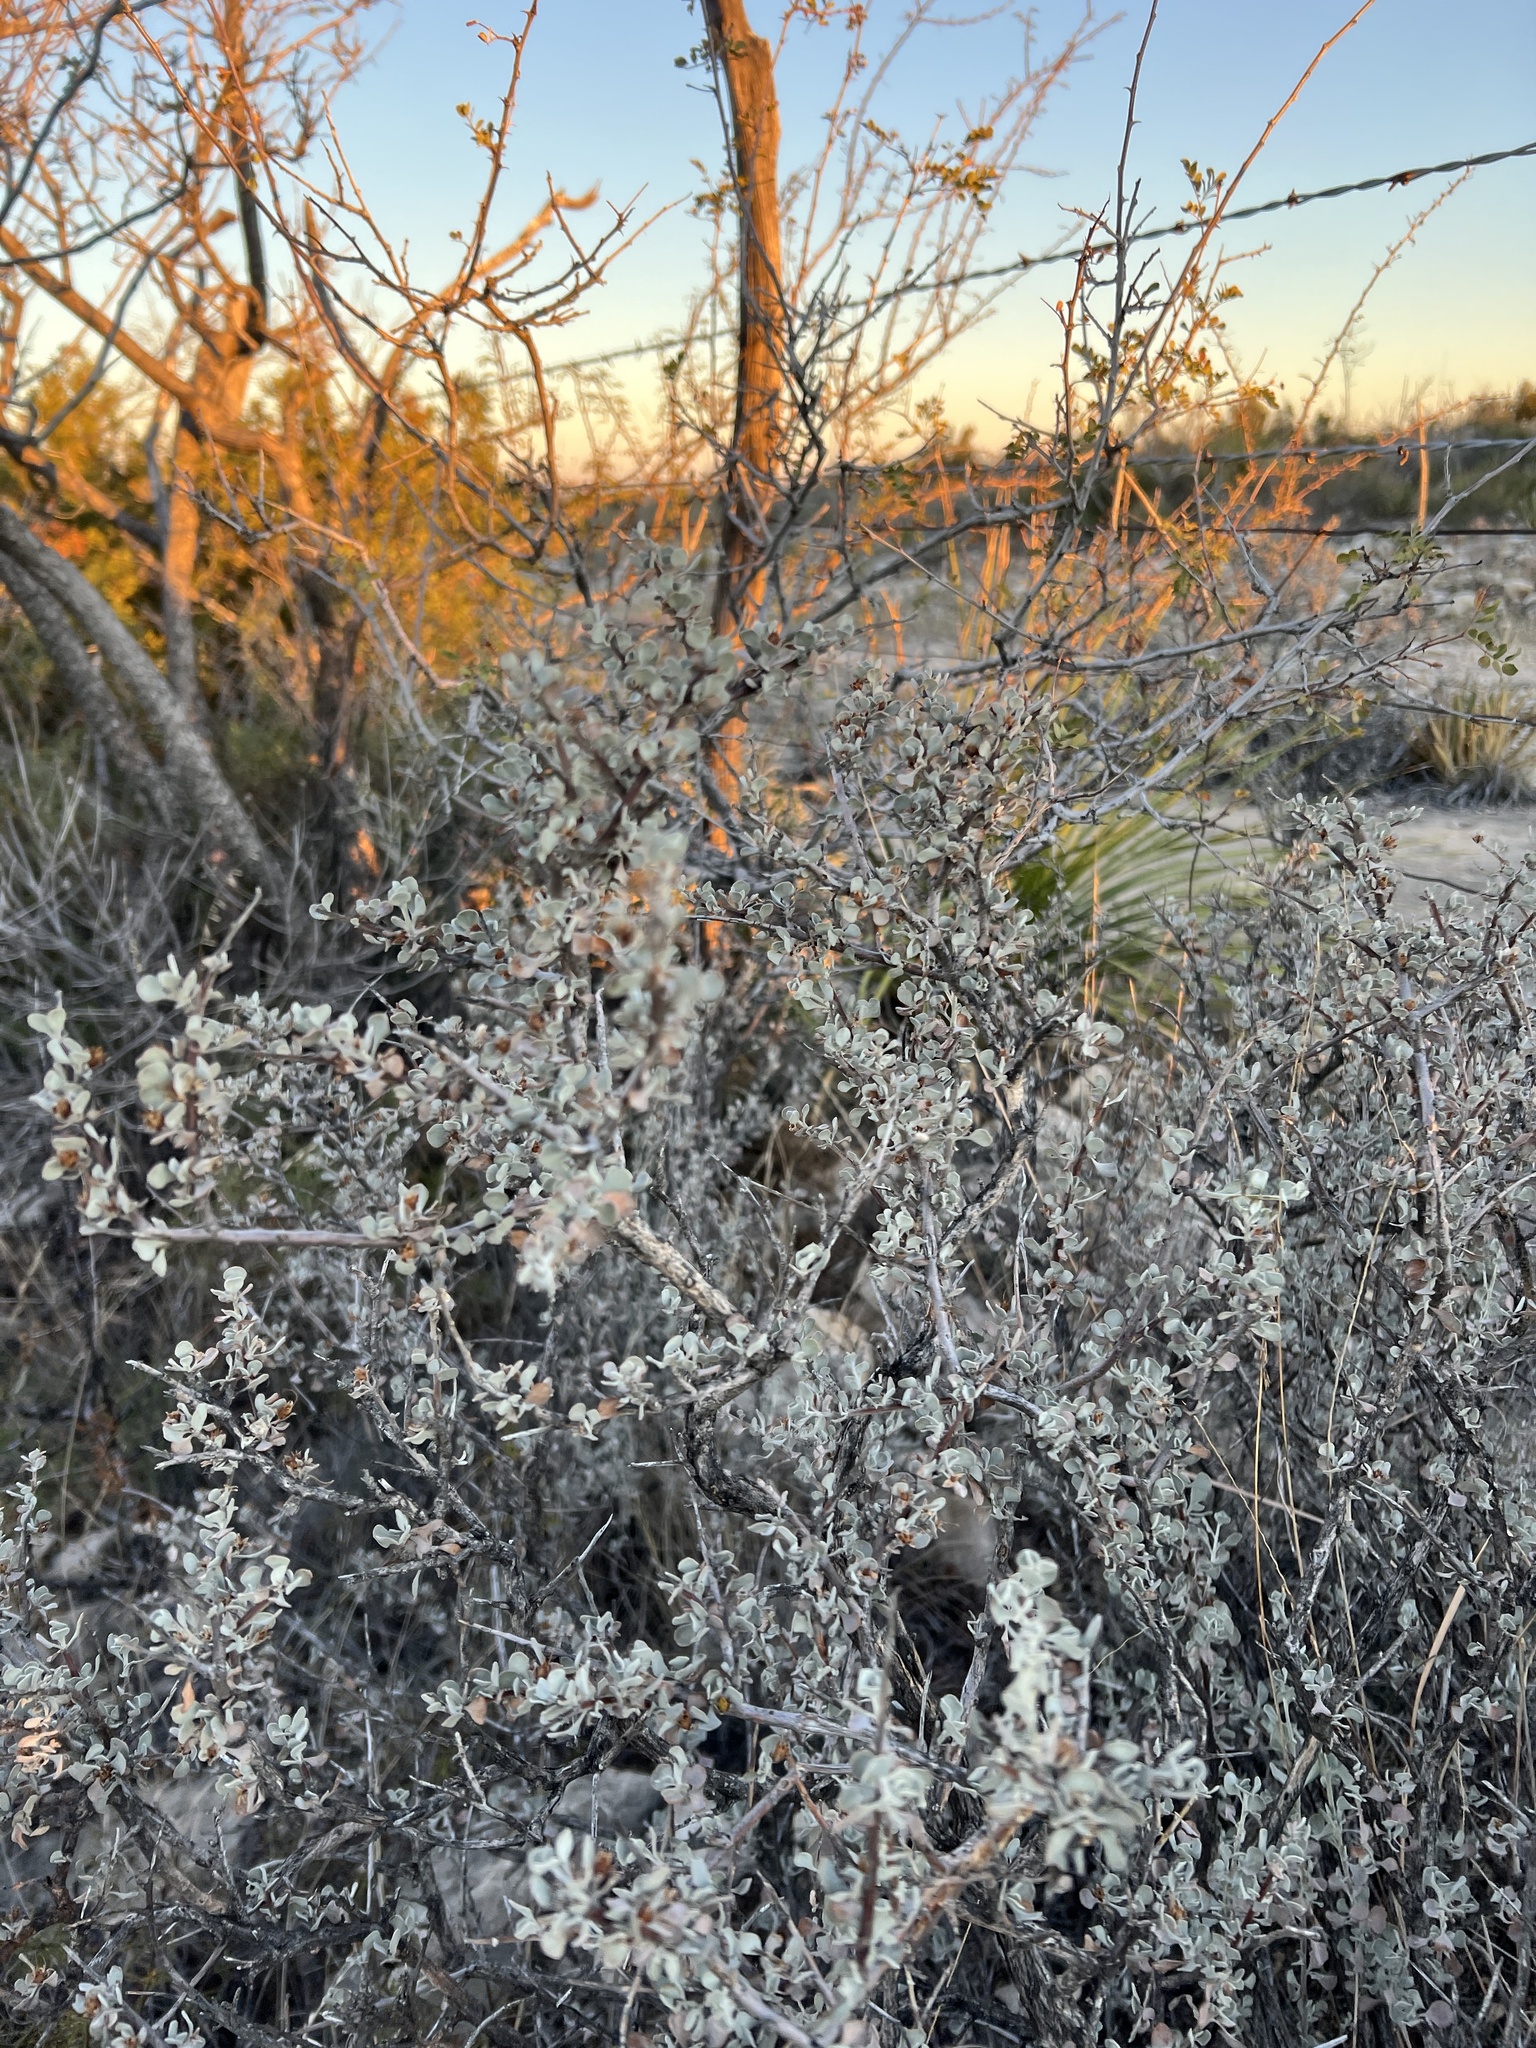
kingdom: Plantae
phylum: Tracheophyta
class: Magnoliopsida
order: Lamiales
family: Scrophulariaceae
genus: Leucophyllum
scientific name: Leucophyllum minus
